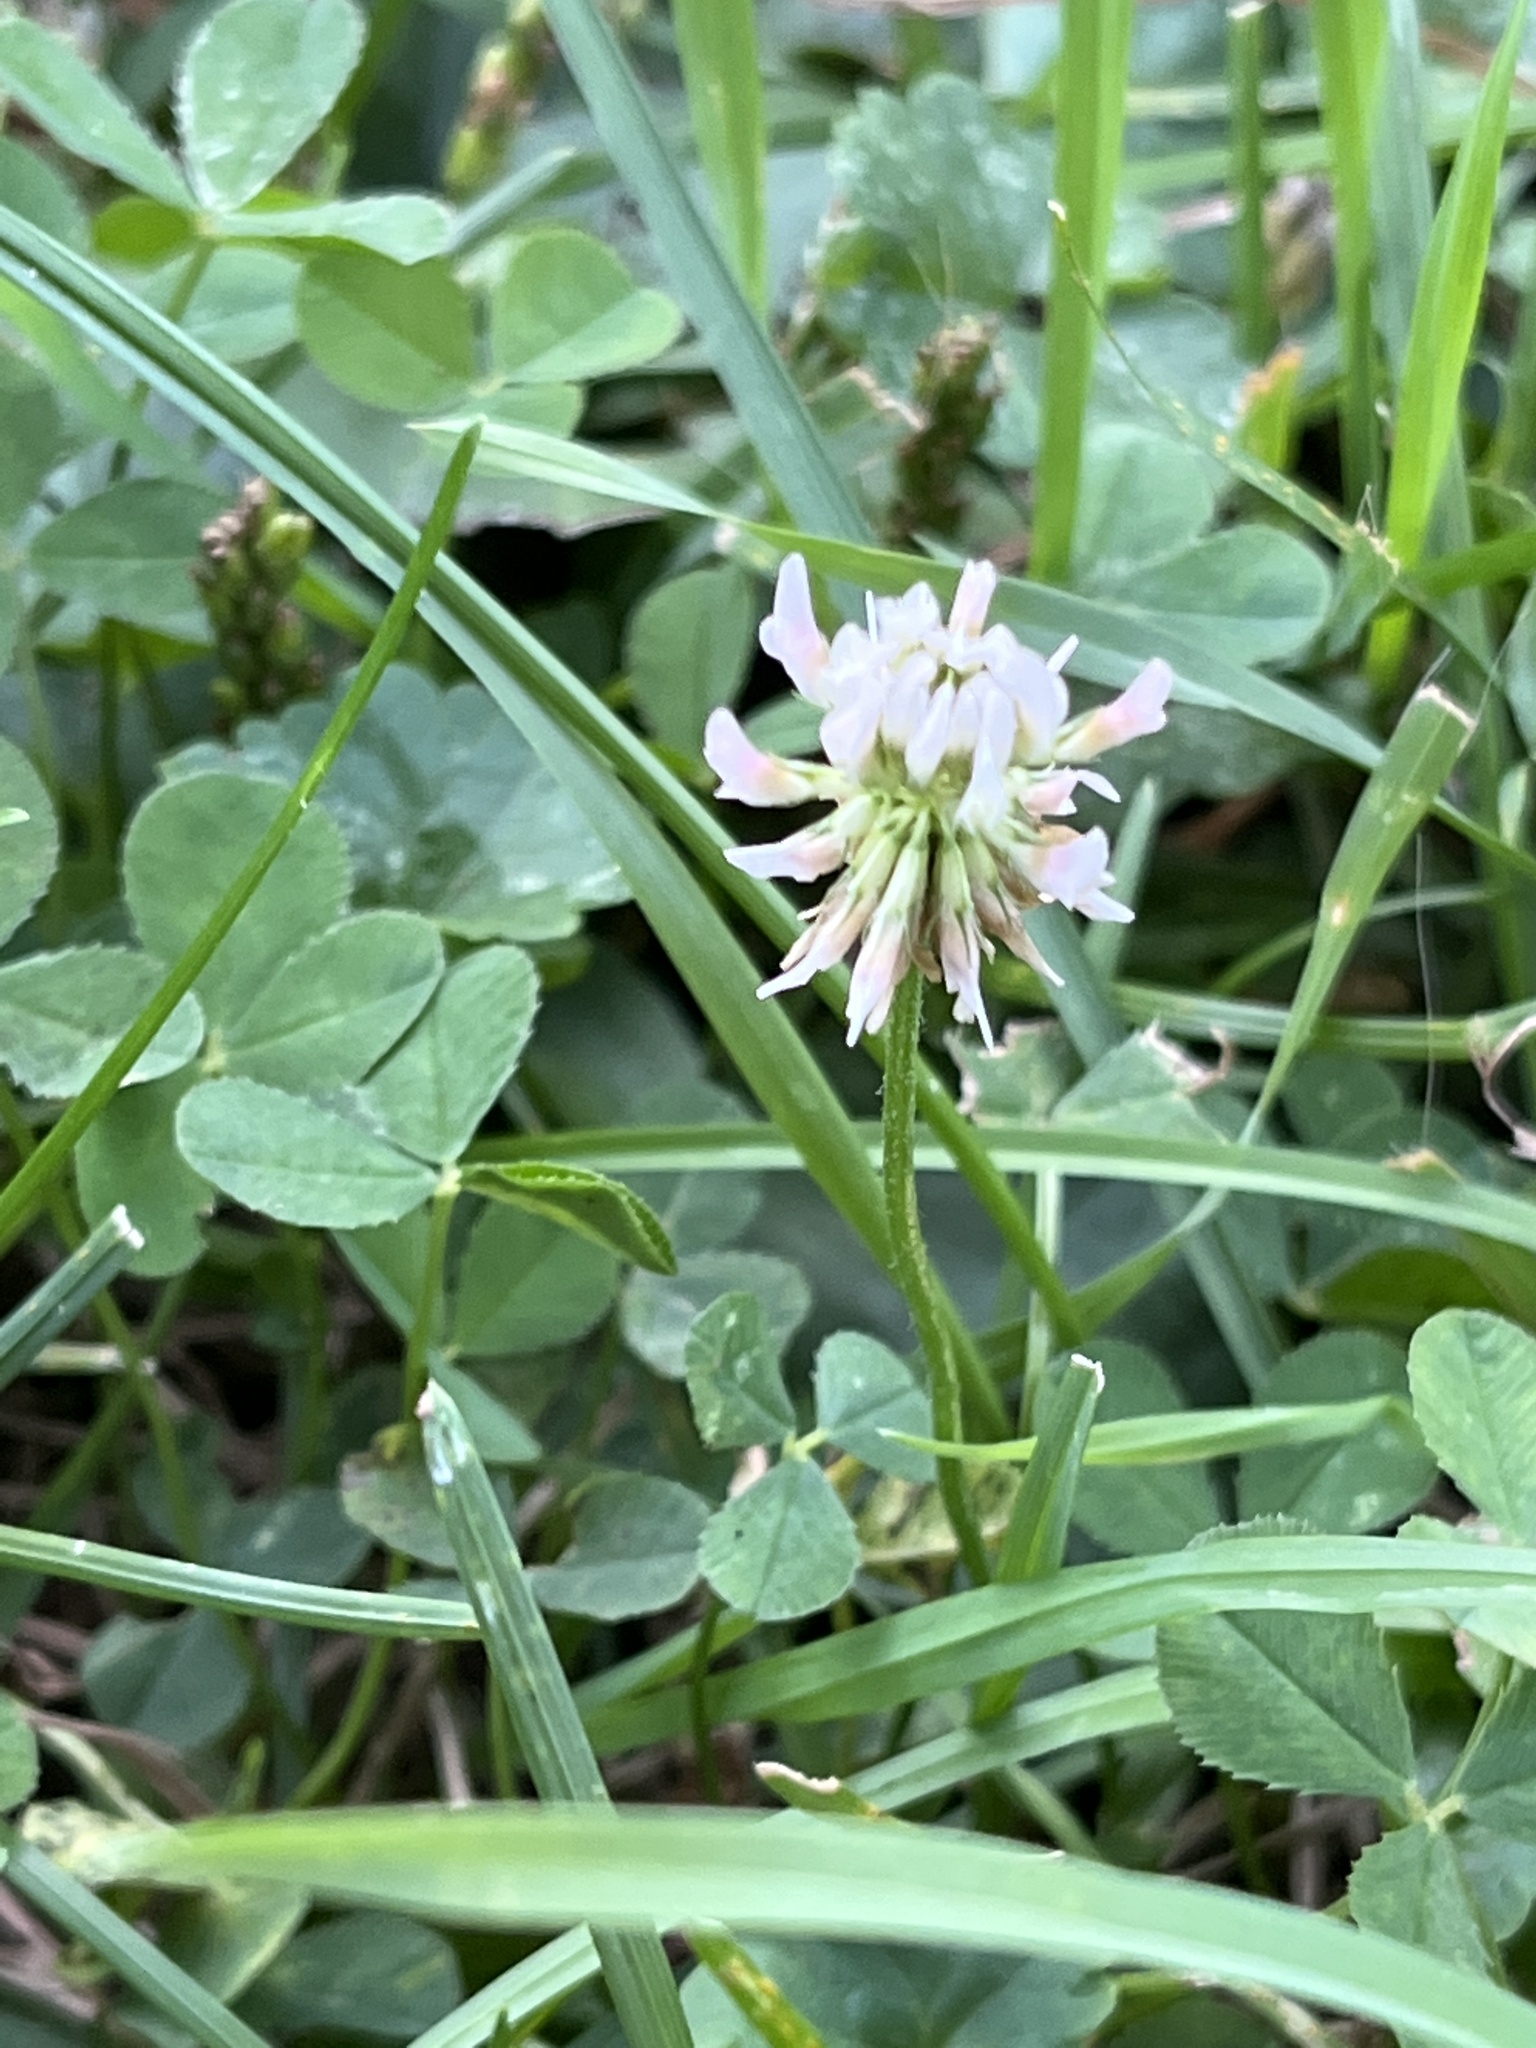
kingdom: Plantae
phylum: Tracheophyta
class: Magnoliopsida
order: Fabales
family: Fabaceae
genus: Trifolium
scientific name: Trifolium repens
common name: White clover
